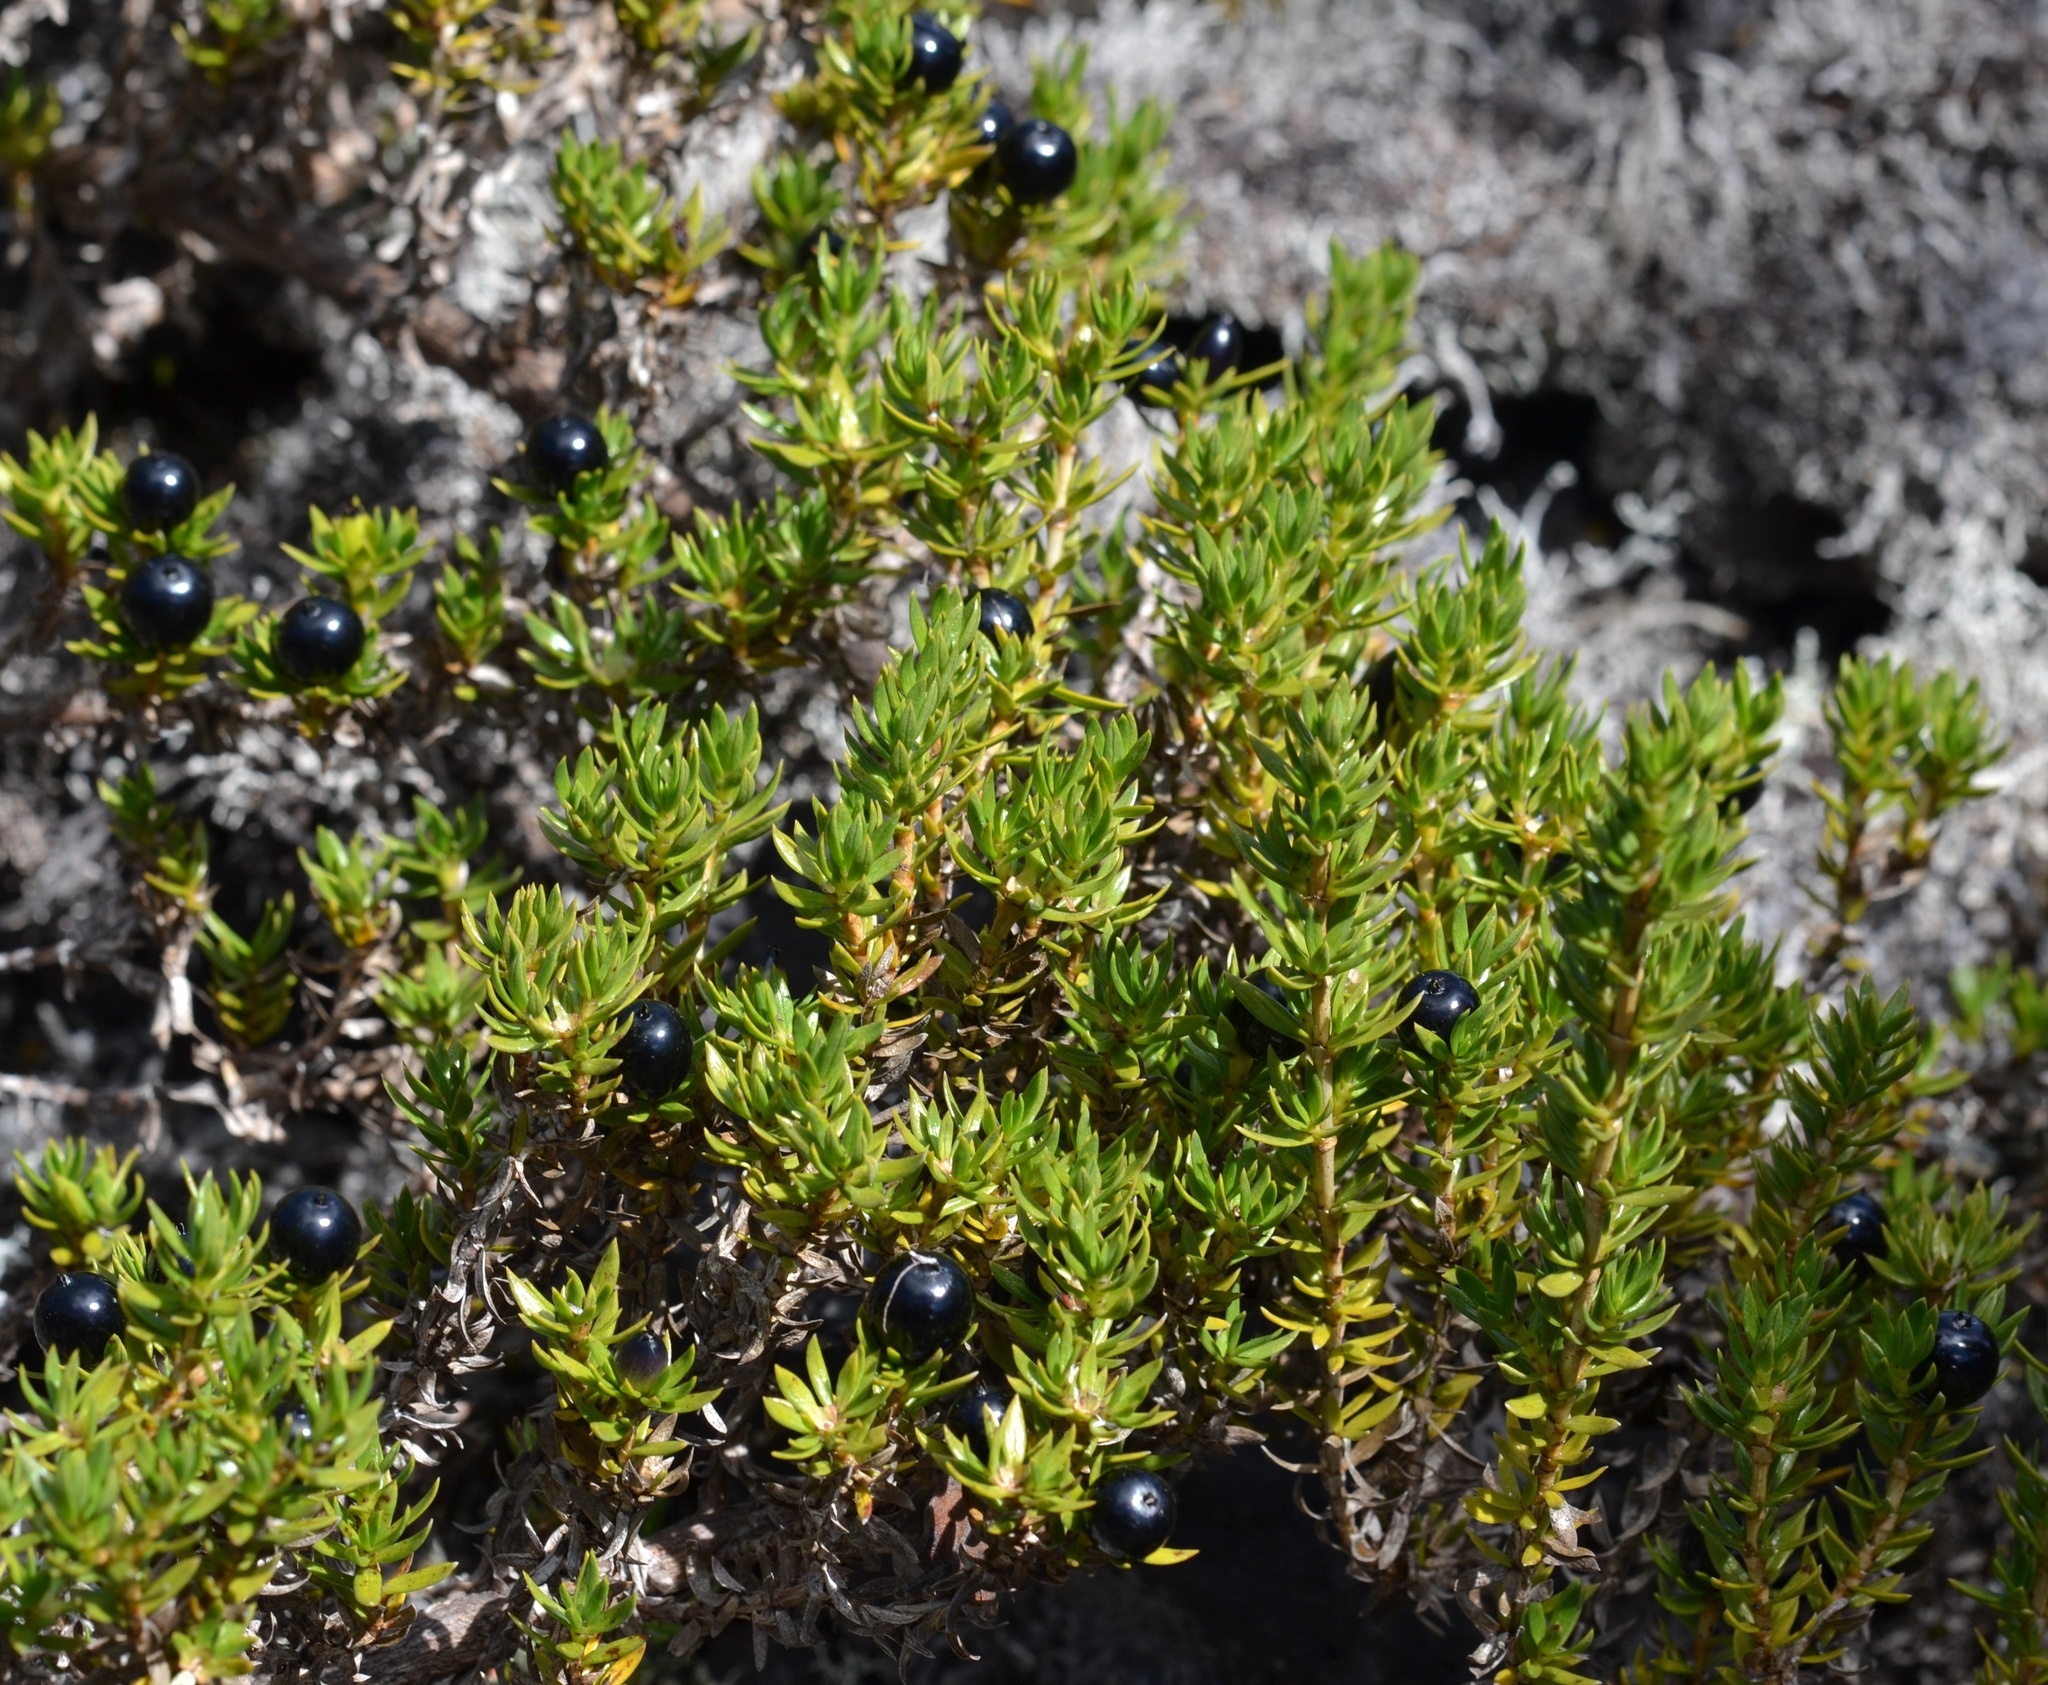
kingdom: Plantae
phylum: Tracheophyta
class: Magnoliopsida
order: Gentianales
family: Rubiaceae
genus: Coprosma
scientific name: Coprosma ernodeoides
